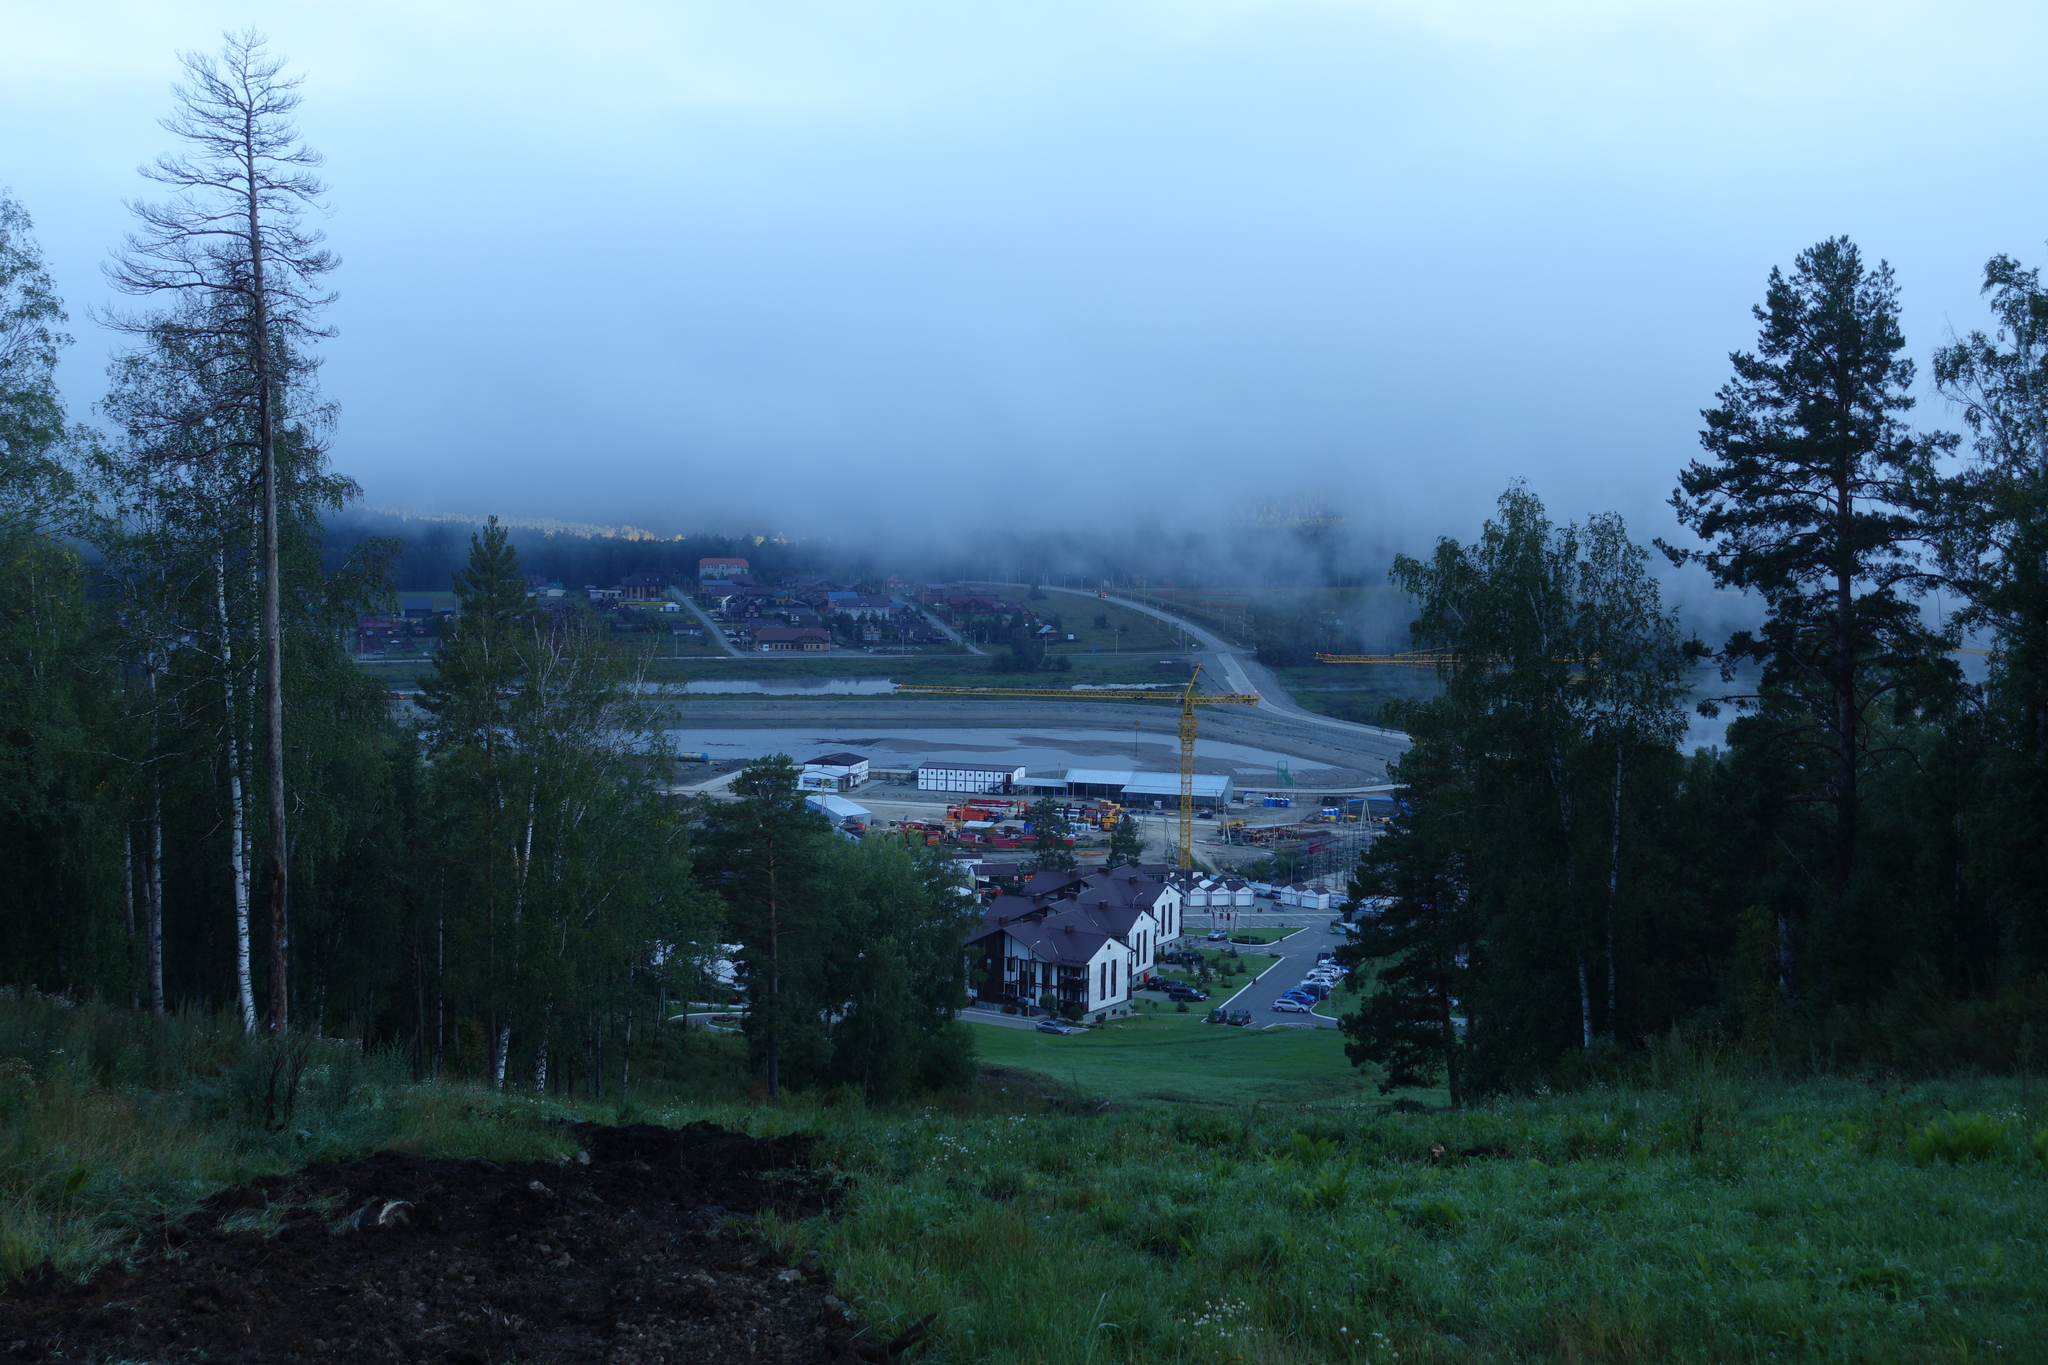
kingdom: Plantae
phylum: Tracheophyta
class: Pinopsida
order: Pinales
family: Pinaceae
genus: Pinus
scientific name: Pinus sylvestris
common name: Scots pine
